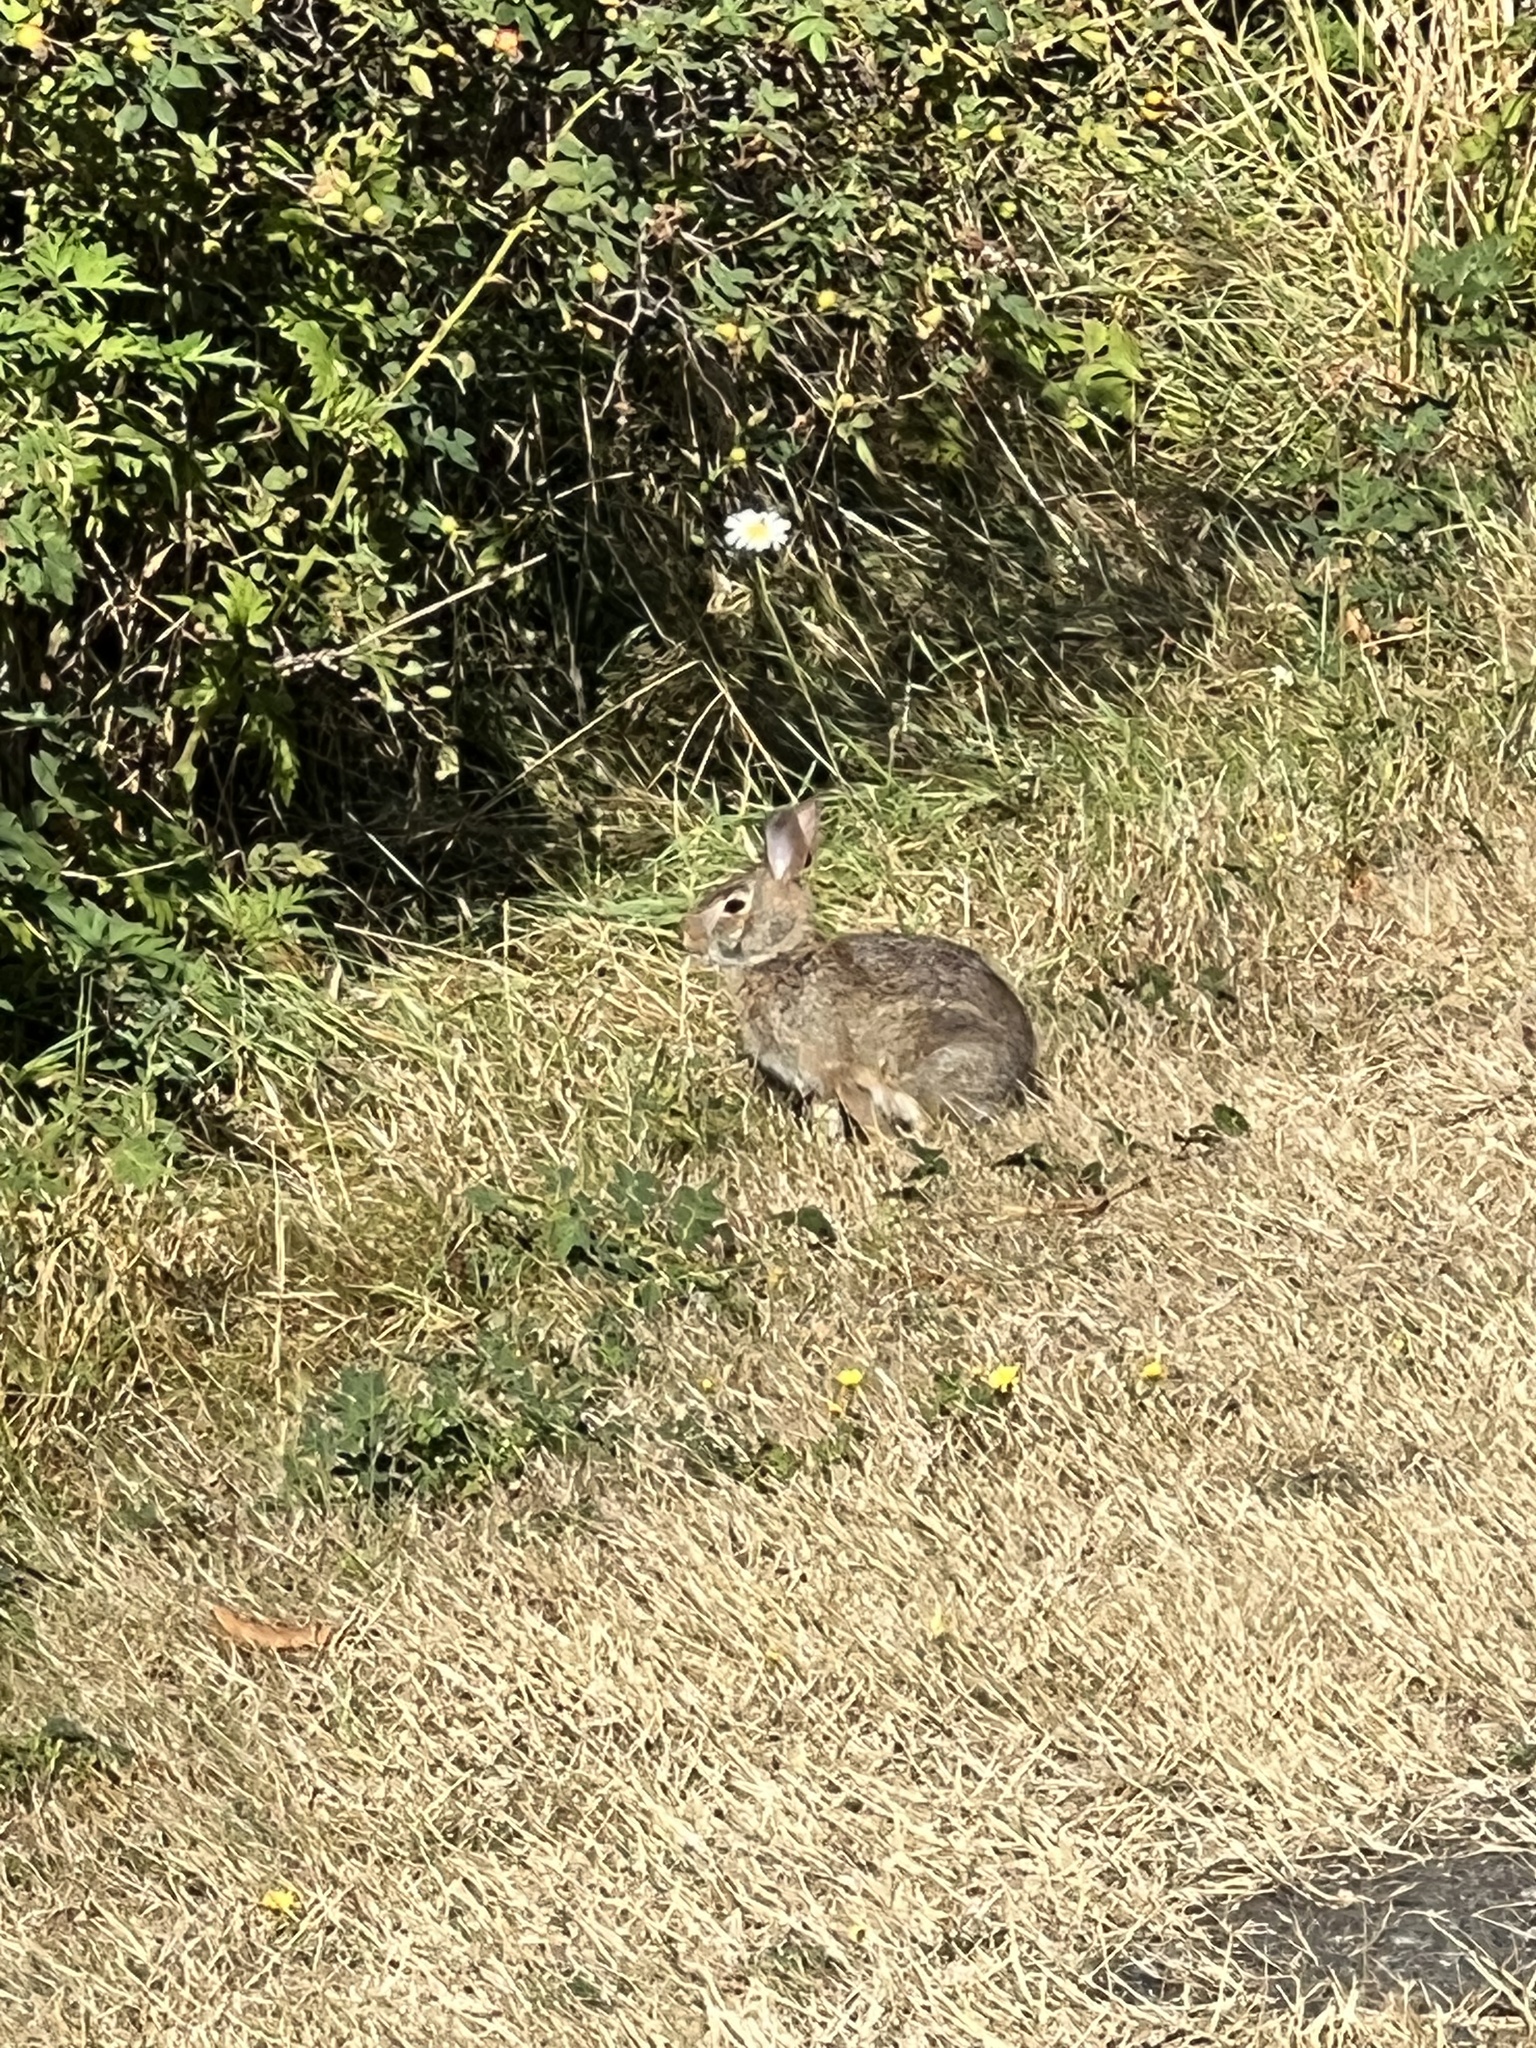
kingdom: Animalia
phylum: Chordata
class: Mammalia
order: Lagomorpha
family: Leporidae
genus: Sylvilagus
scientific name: Sylvilagus floridanus
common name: Eastern cottontail
